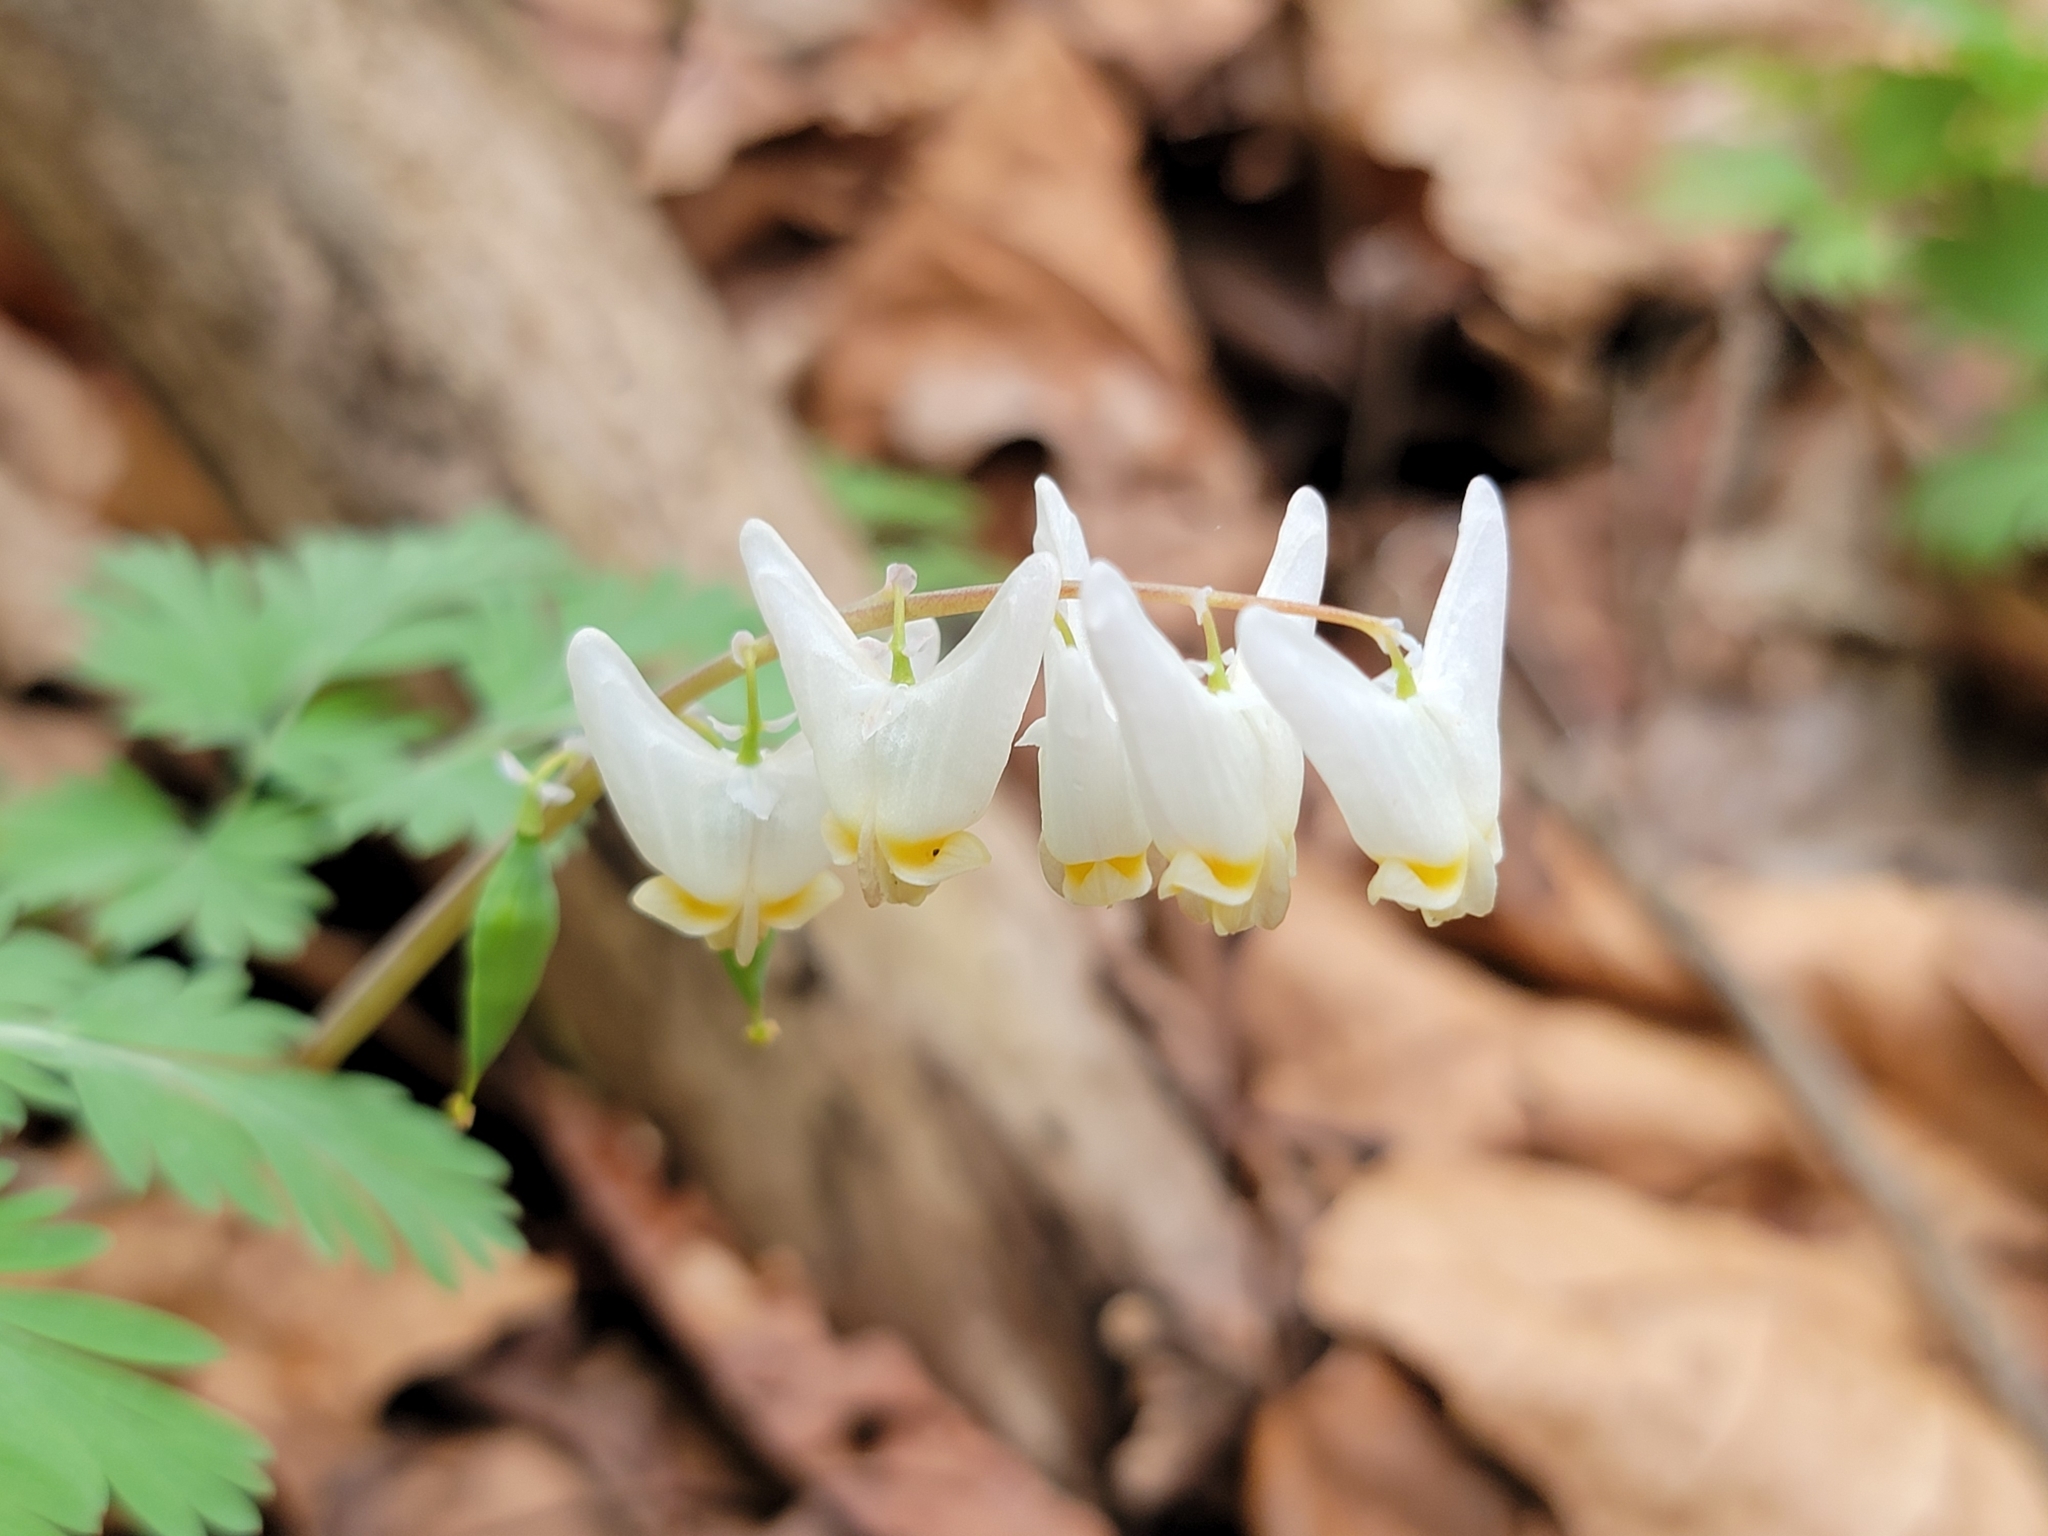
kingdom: Plantae
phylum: Tracheophyta
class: Magnoliopsida
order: Ranunculales
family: Papaveraceae
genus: Dicentra
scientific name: Dicentra cucullaria
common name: Dutchman's breeches
